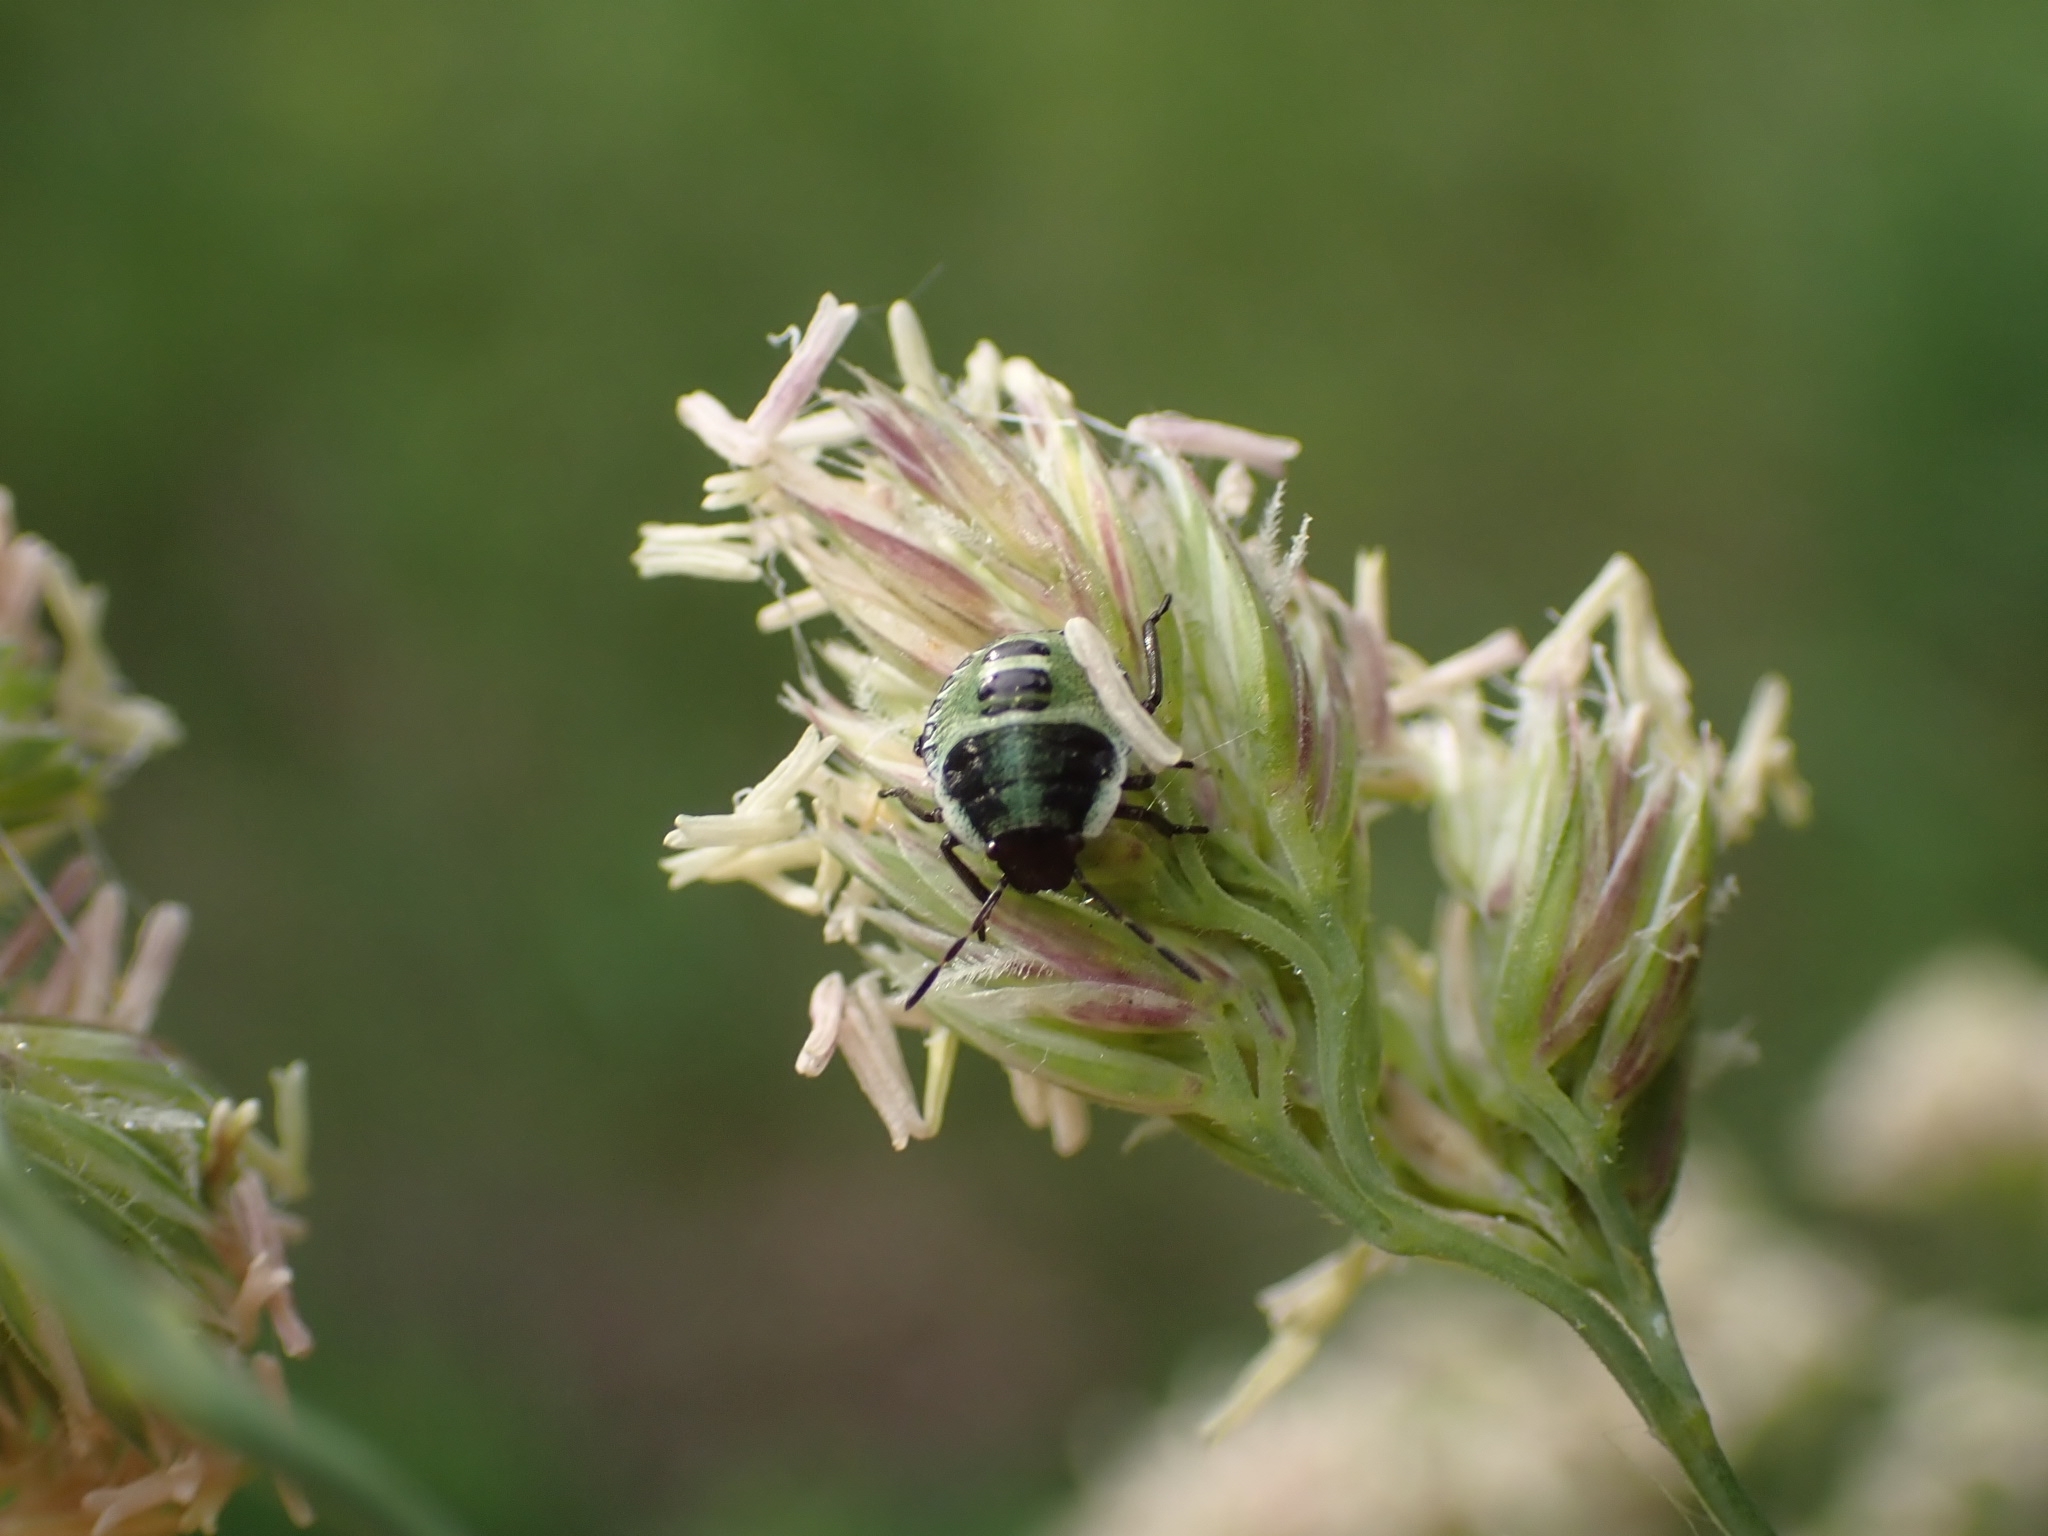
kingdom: Animalia
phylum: Arthropoda
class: Insecta
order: Hemiptera
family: Pentatomidae
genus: Palomena
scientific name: Palomena prasina
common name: Green shieldbug
